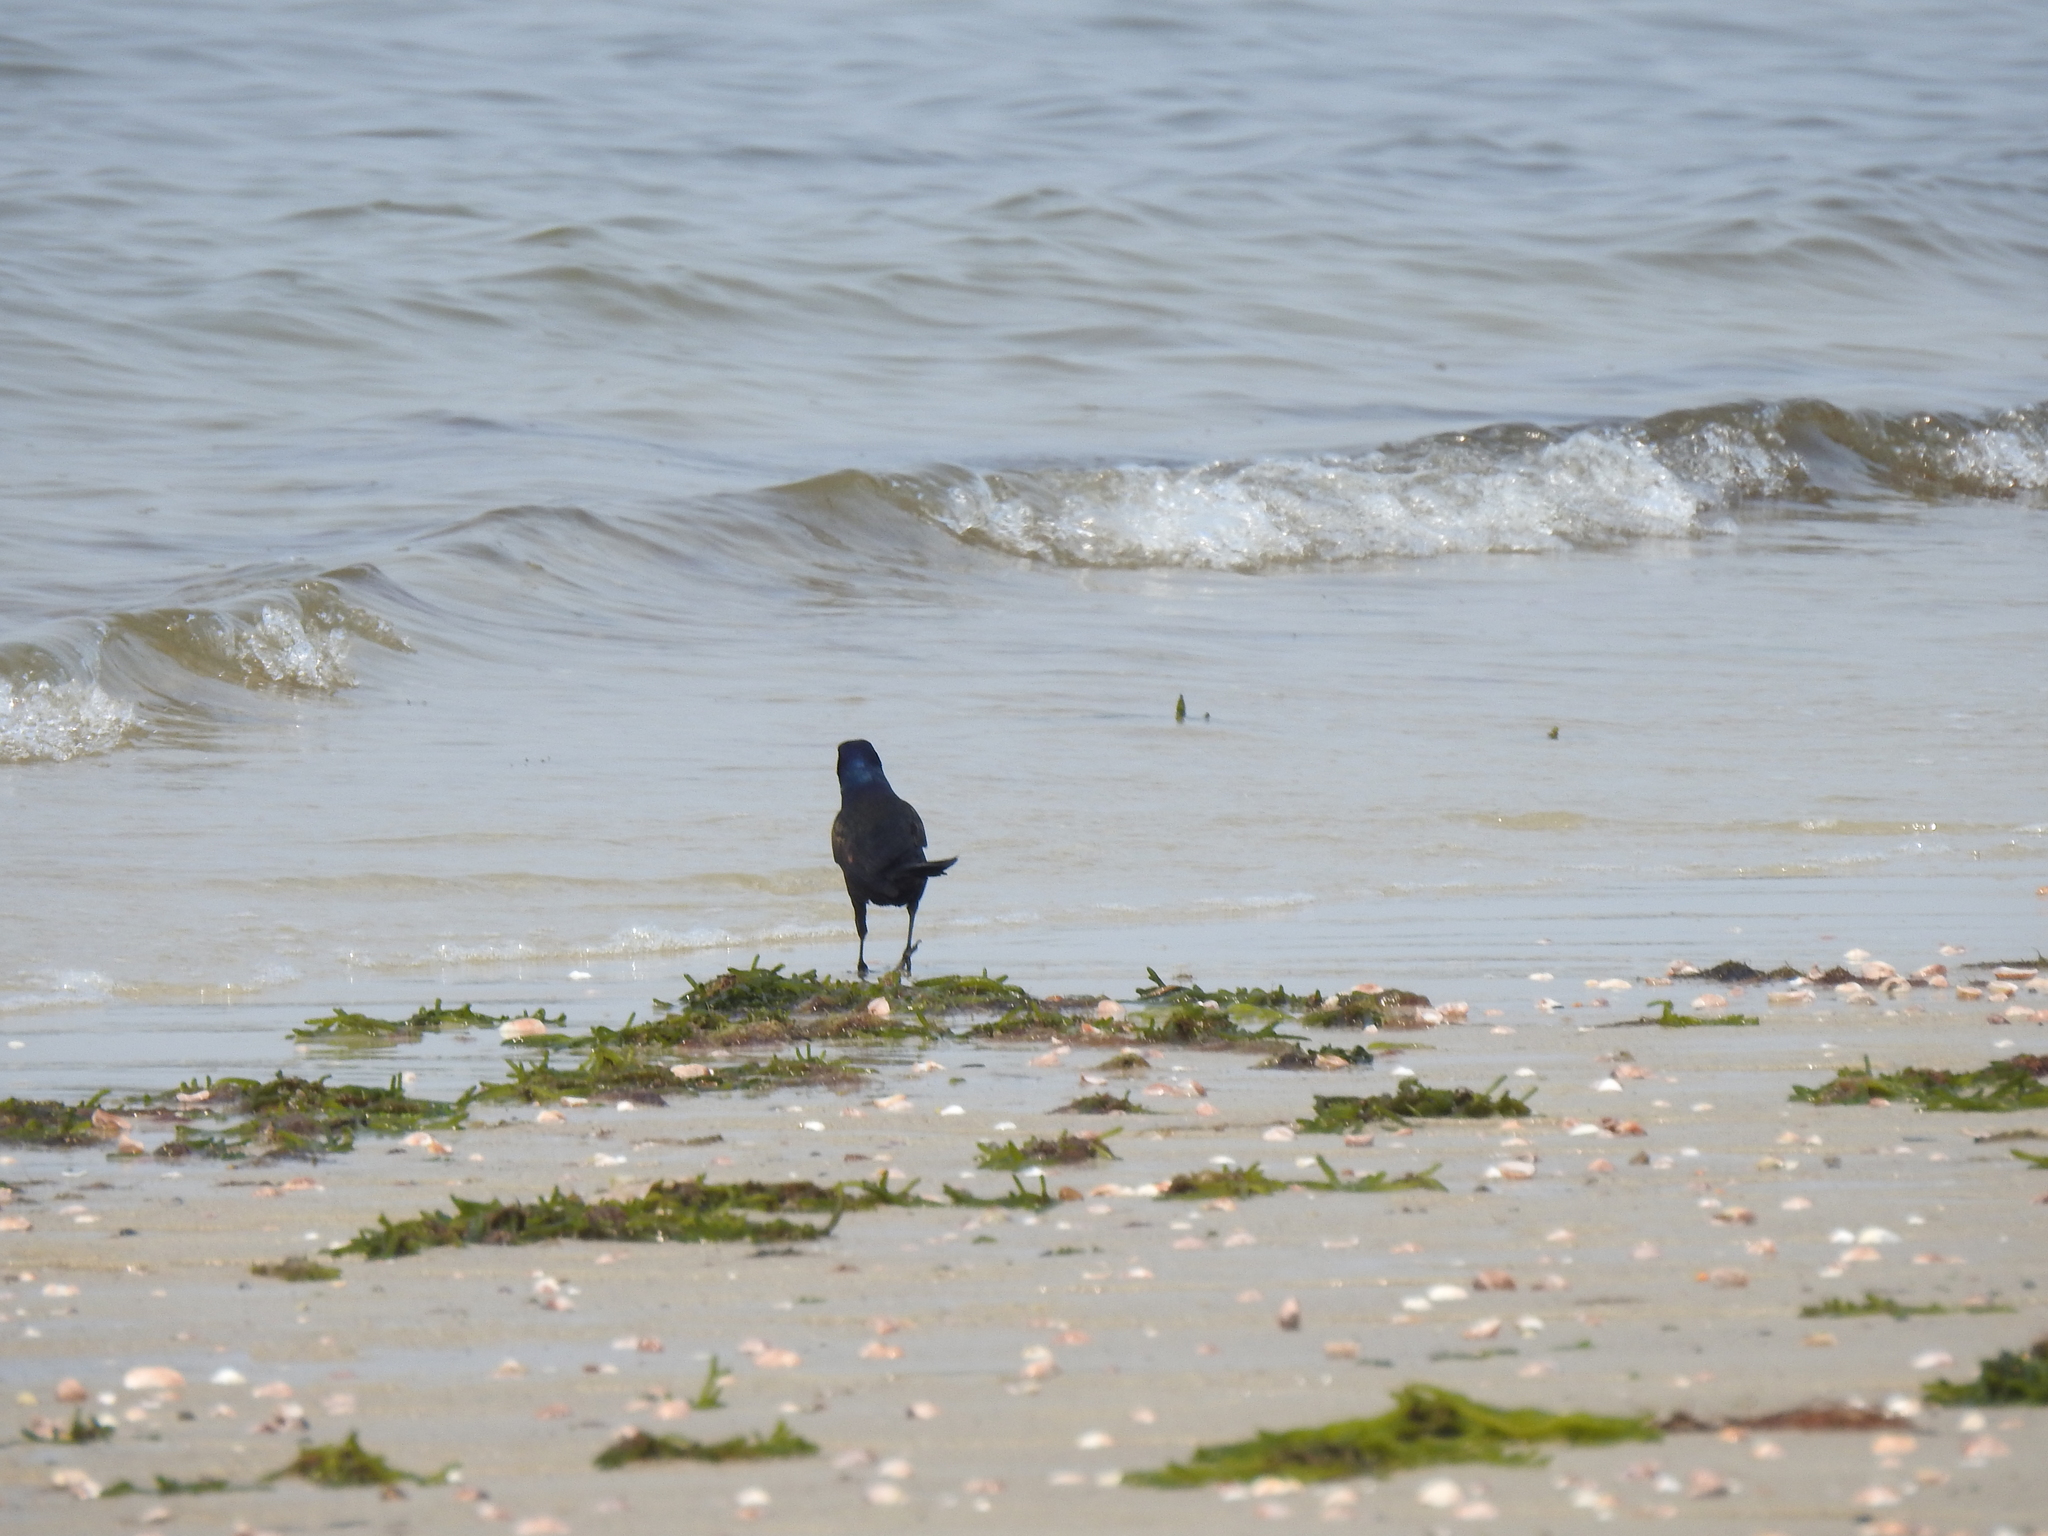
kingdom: Animalia
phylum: Chordata
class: Aves
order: Passeriformes
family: Icteridae
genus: Quiscalus
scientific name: Quiscalus quiscula
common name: Common grackle
